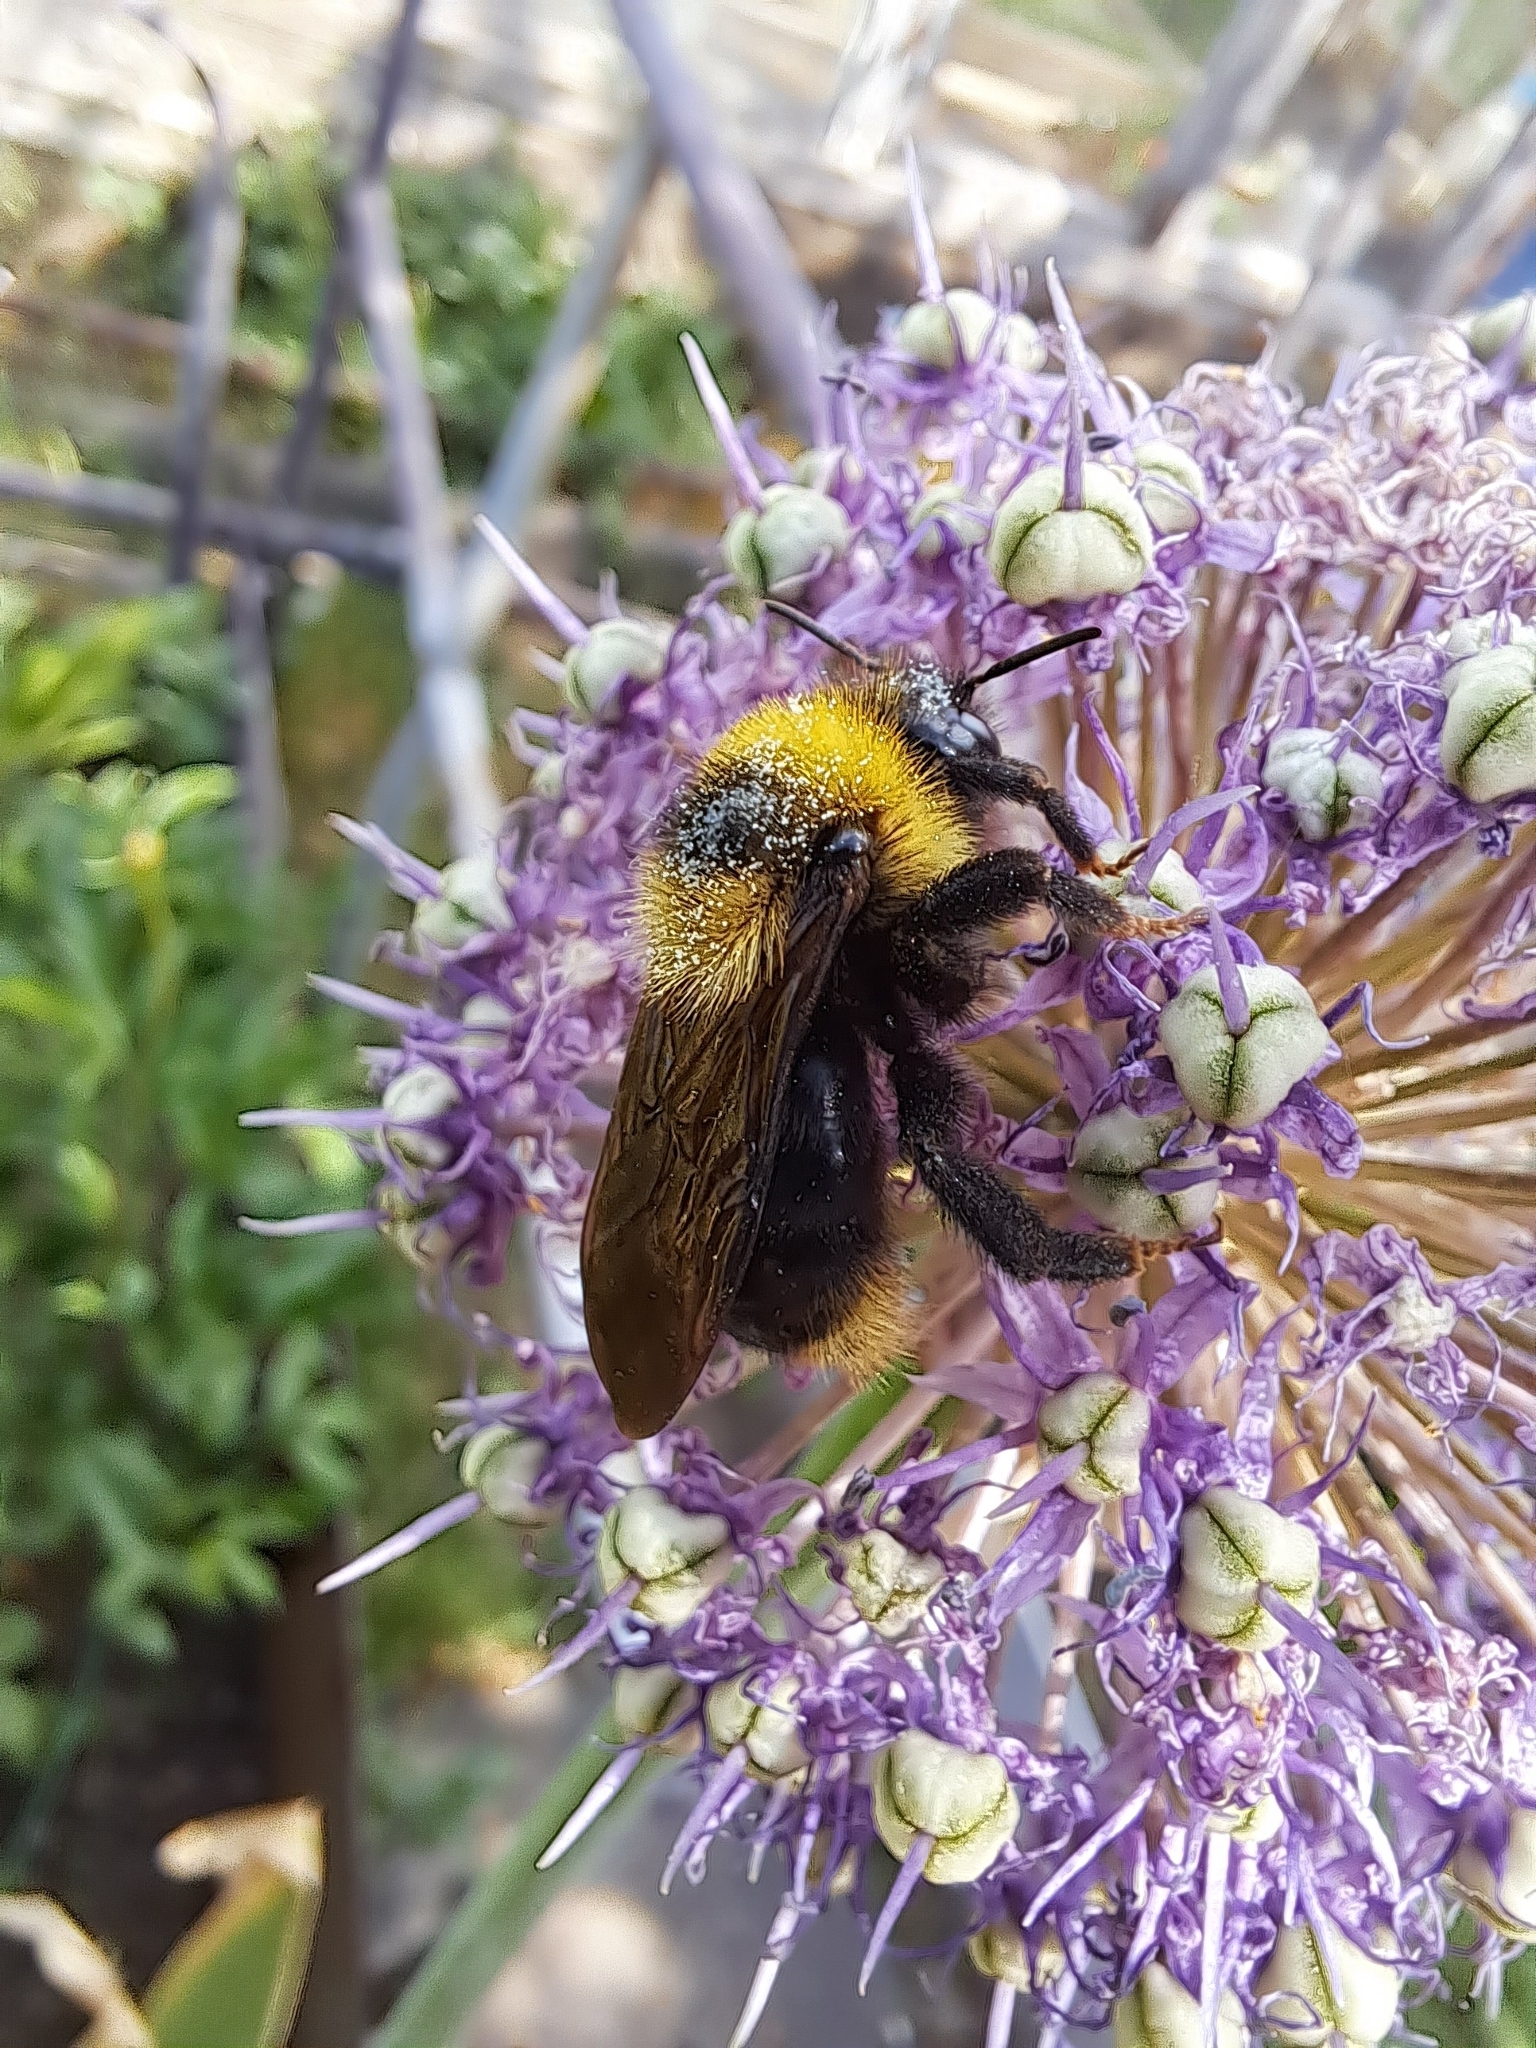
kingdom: Animalia
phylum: Arthropoda
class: Insecta
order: Hymenoptera
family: Apidae
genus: Bombus
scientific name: Bombus campestris
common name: Field cuckoo-bee
